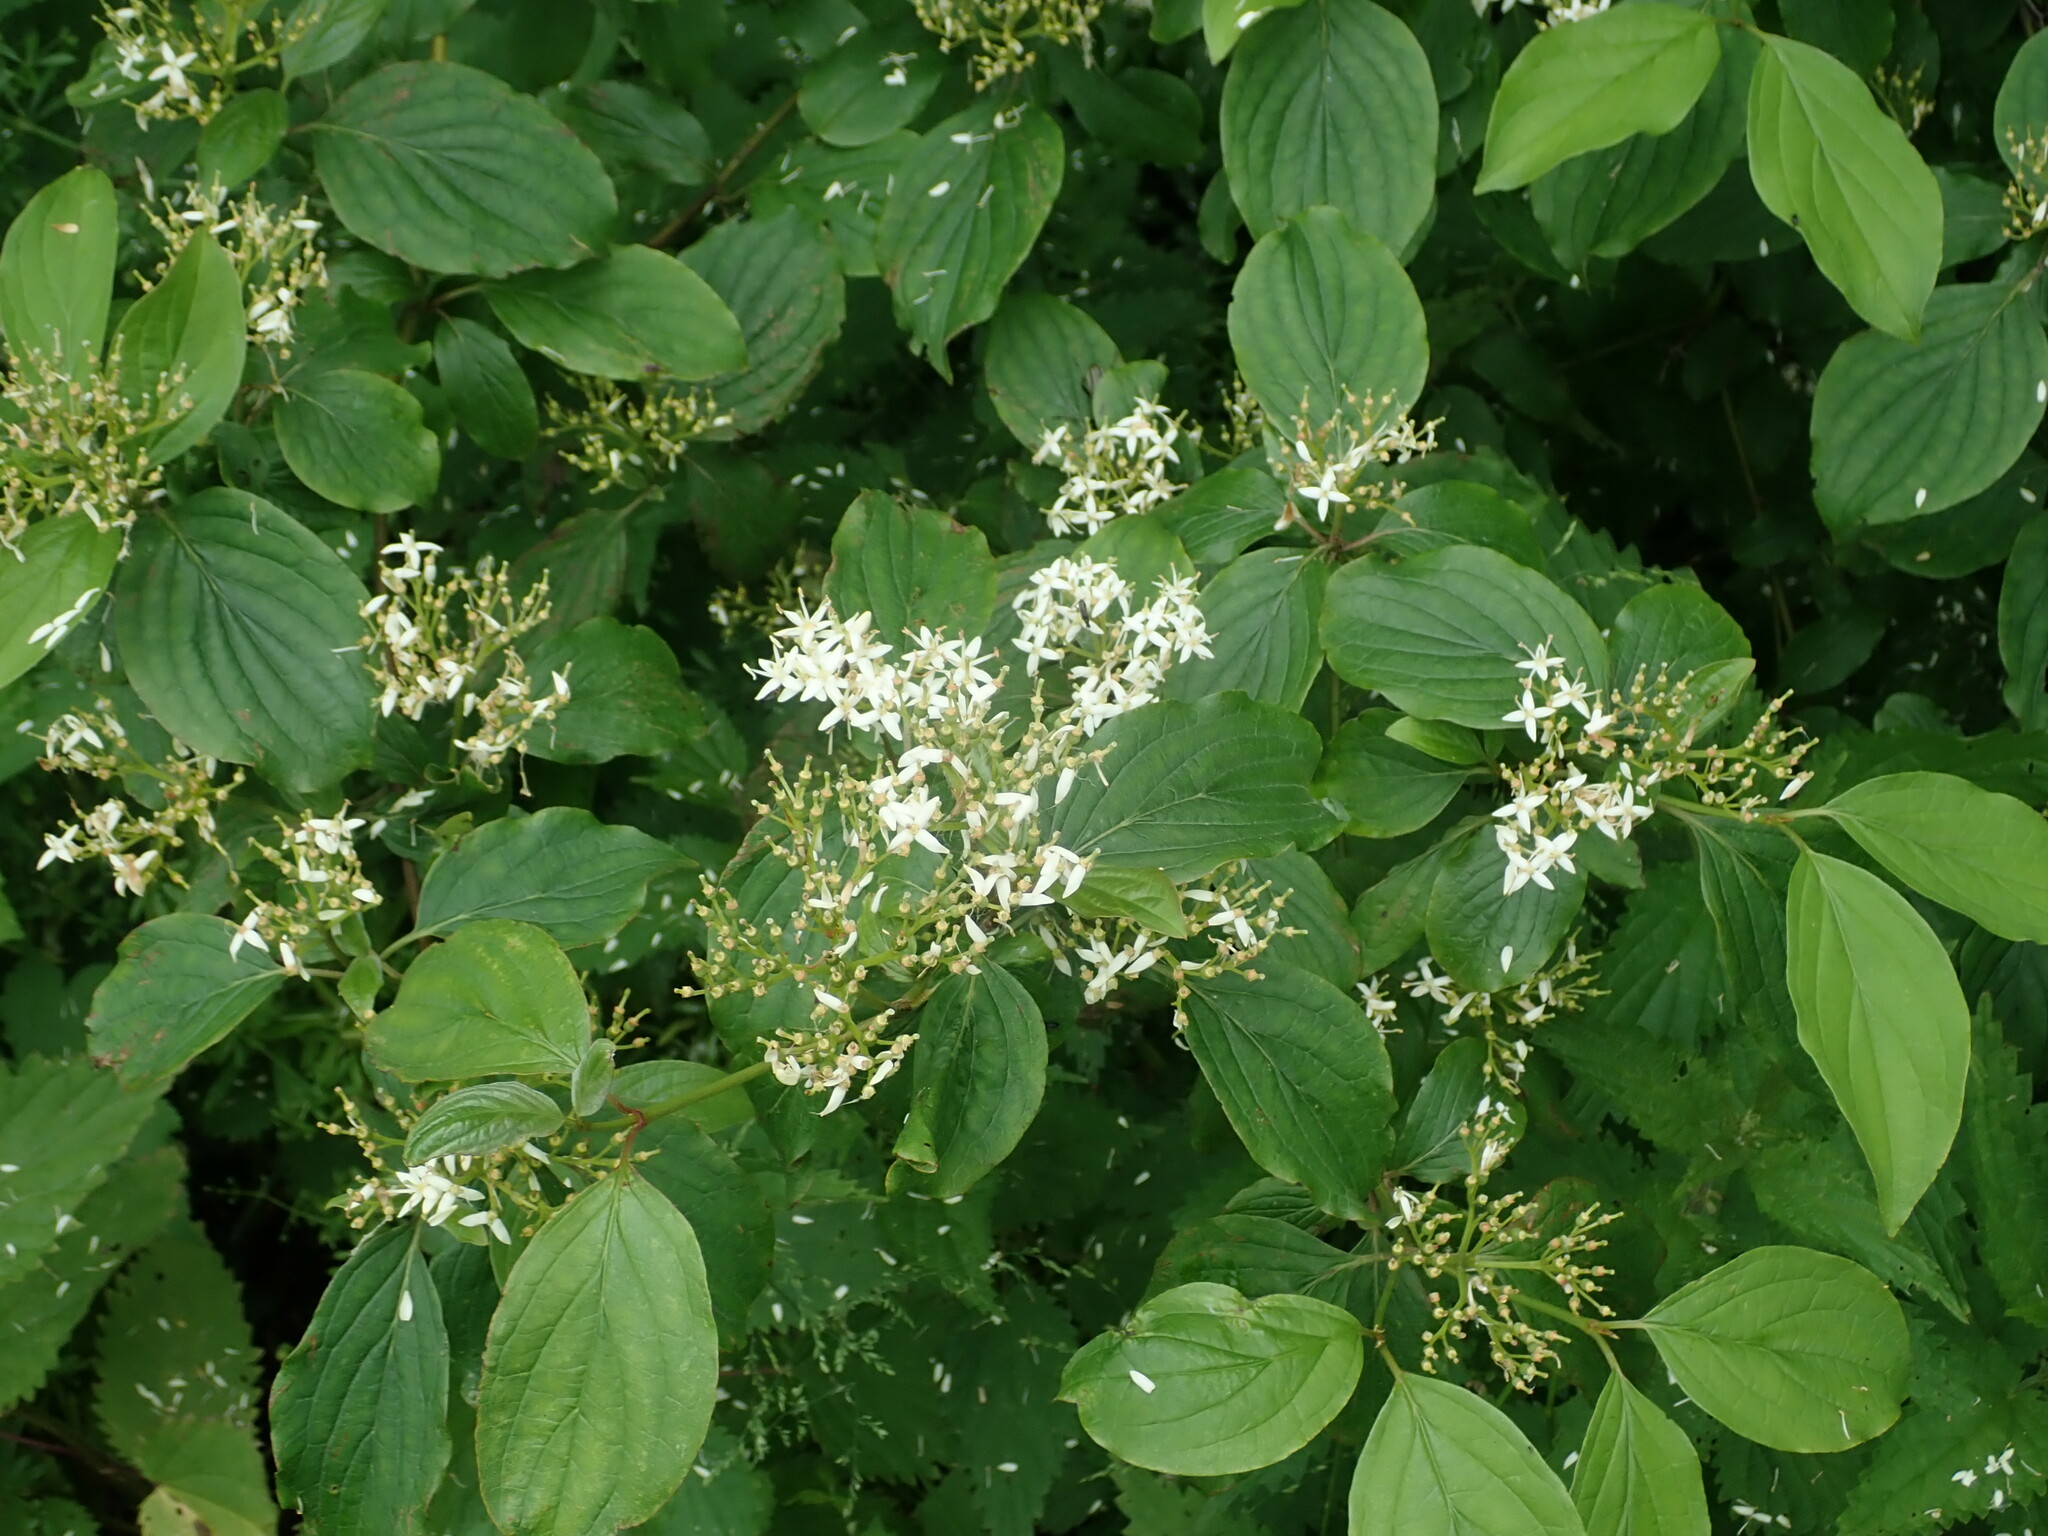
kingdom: Plantae
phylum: Tracheophyta
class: Magnoliopsida
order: Cornales
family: Cornaceae
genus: Cornus
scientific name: Cornus sanguinea
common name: Dogwood
